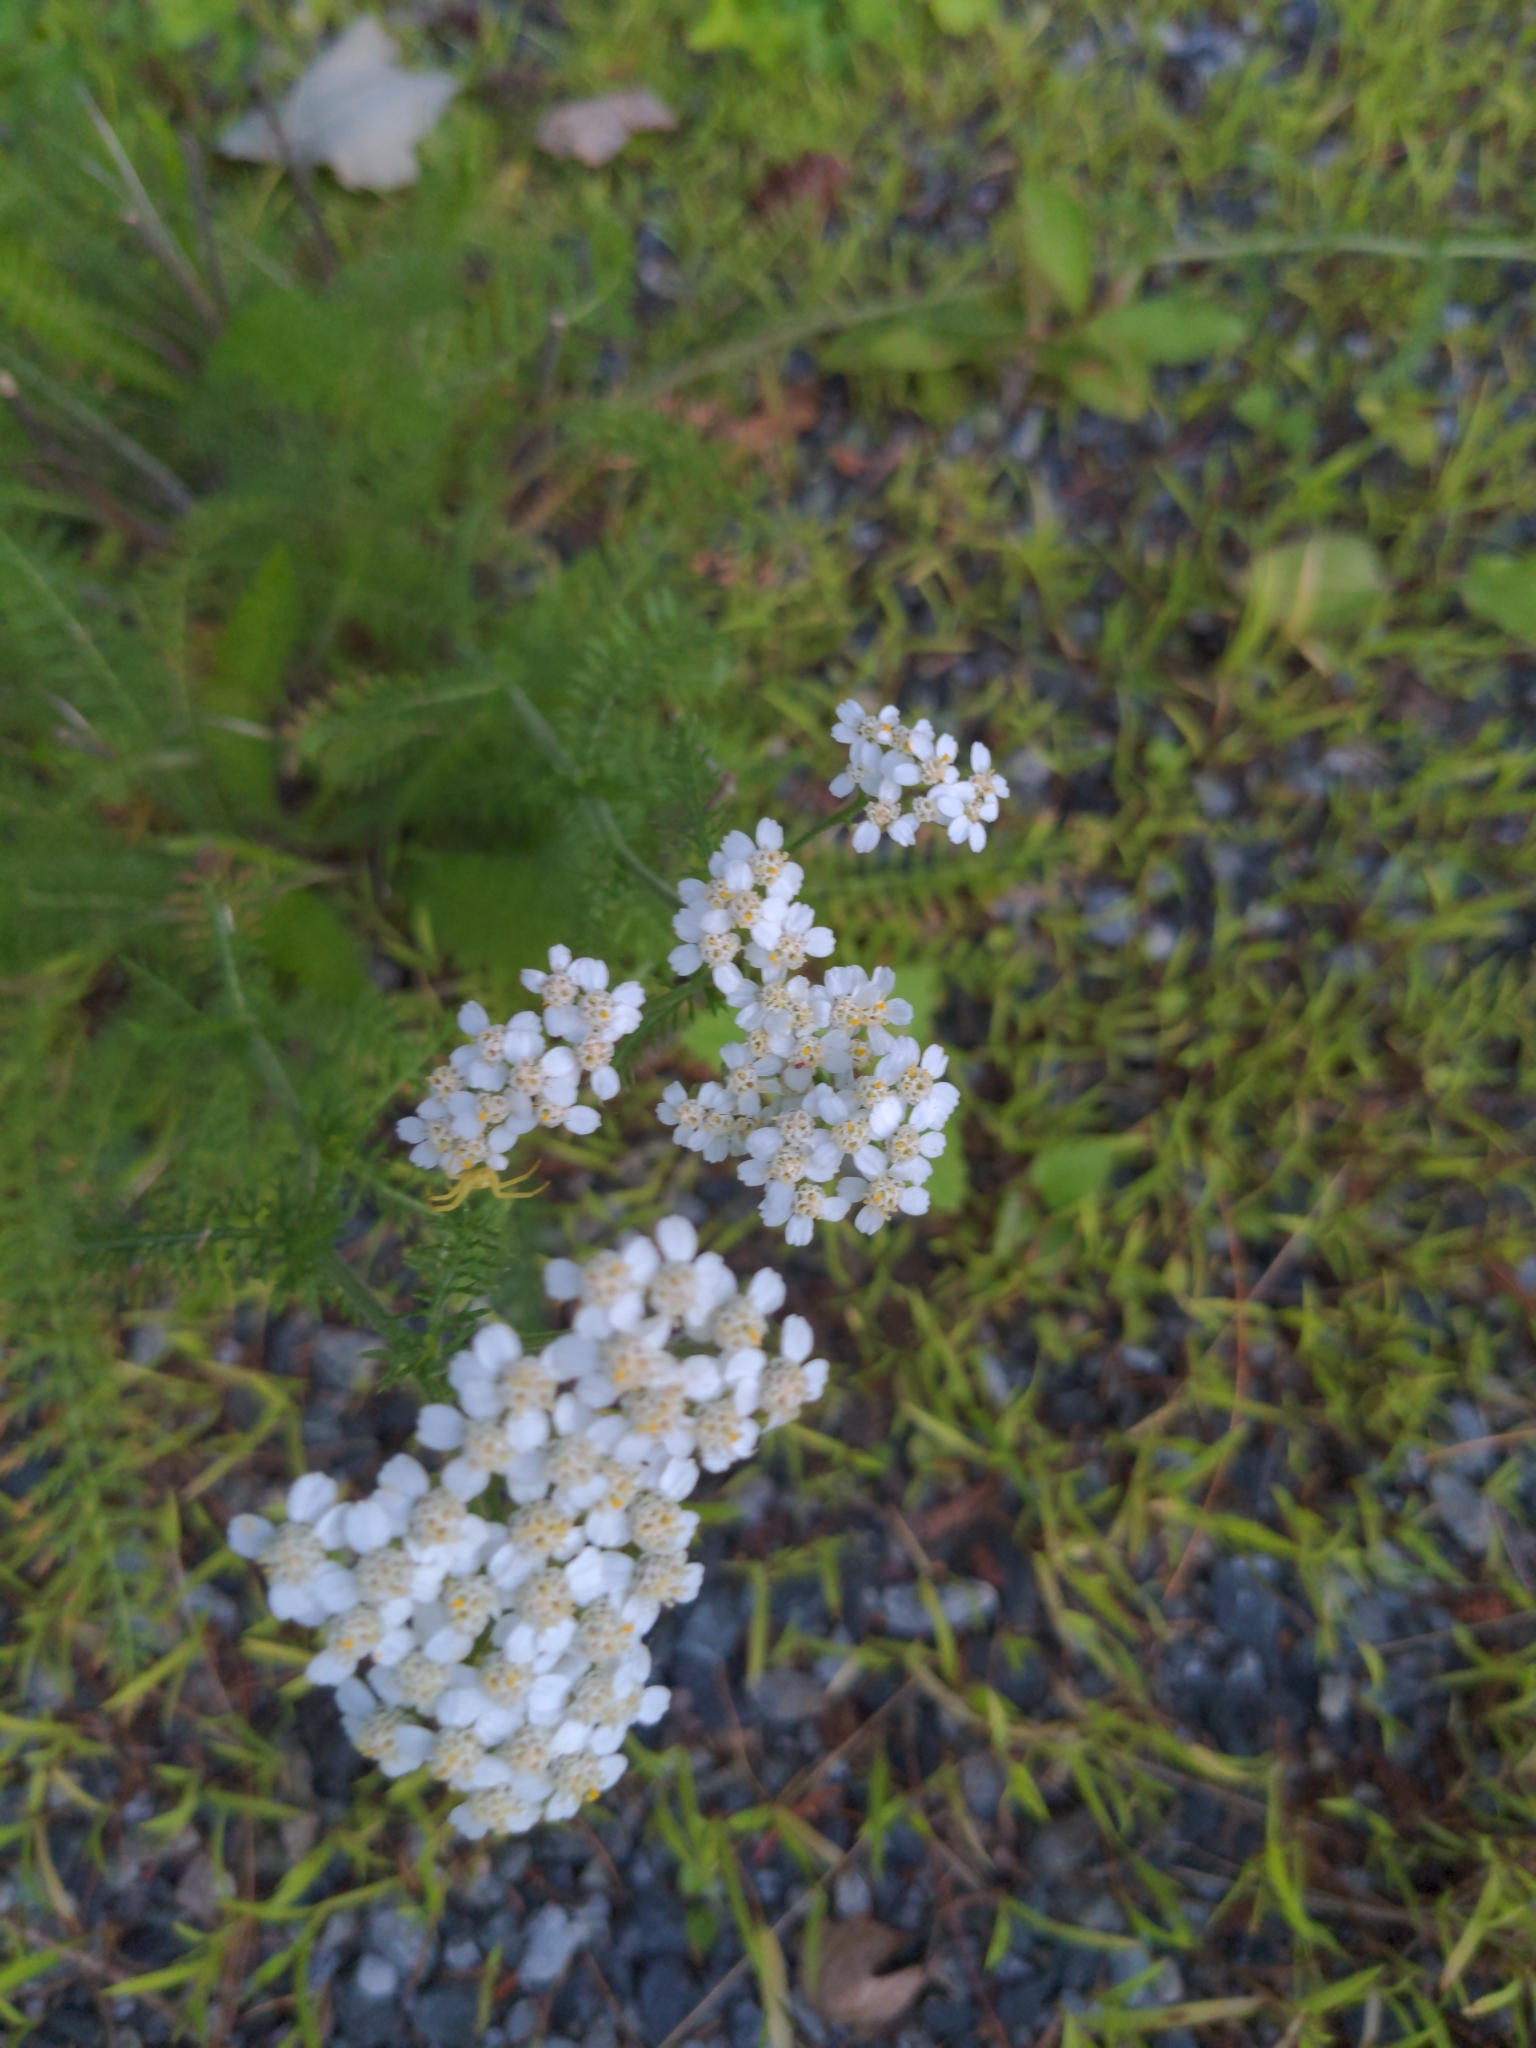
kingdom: Plantae
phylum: Tracheophyta
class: Magnoliopsida
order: Asterales
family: Asteraceae
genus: Achillea
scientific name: Achillea millefolium
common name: Yarrow
